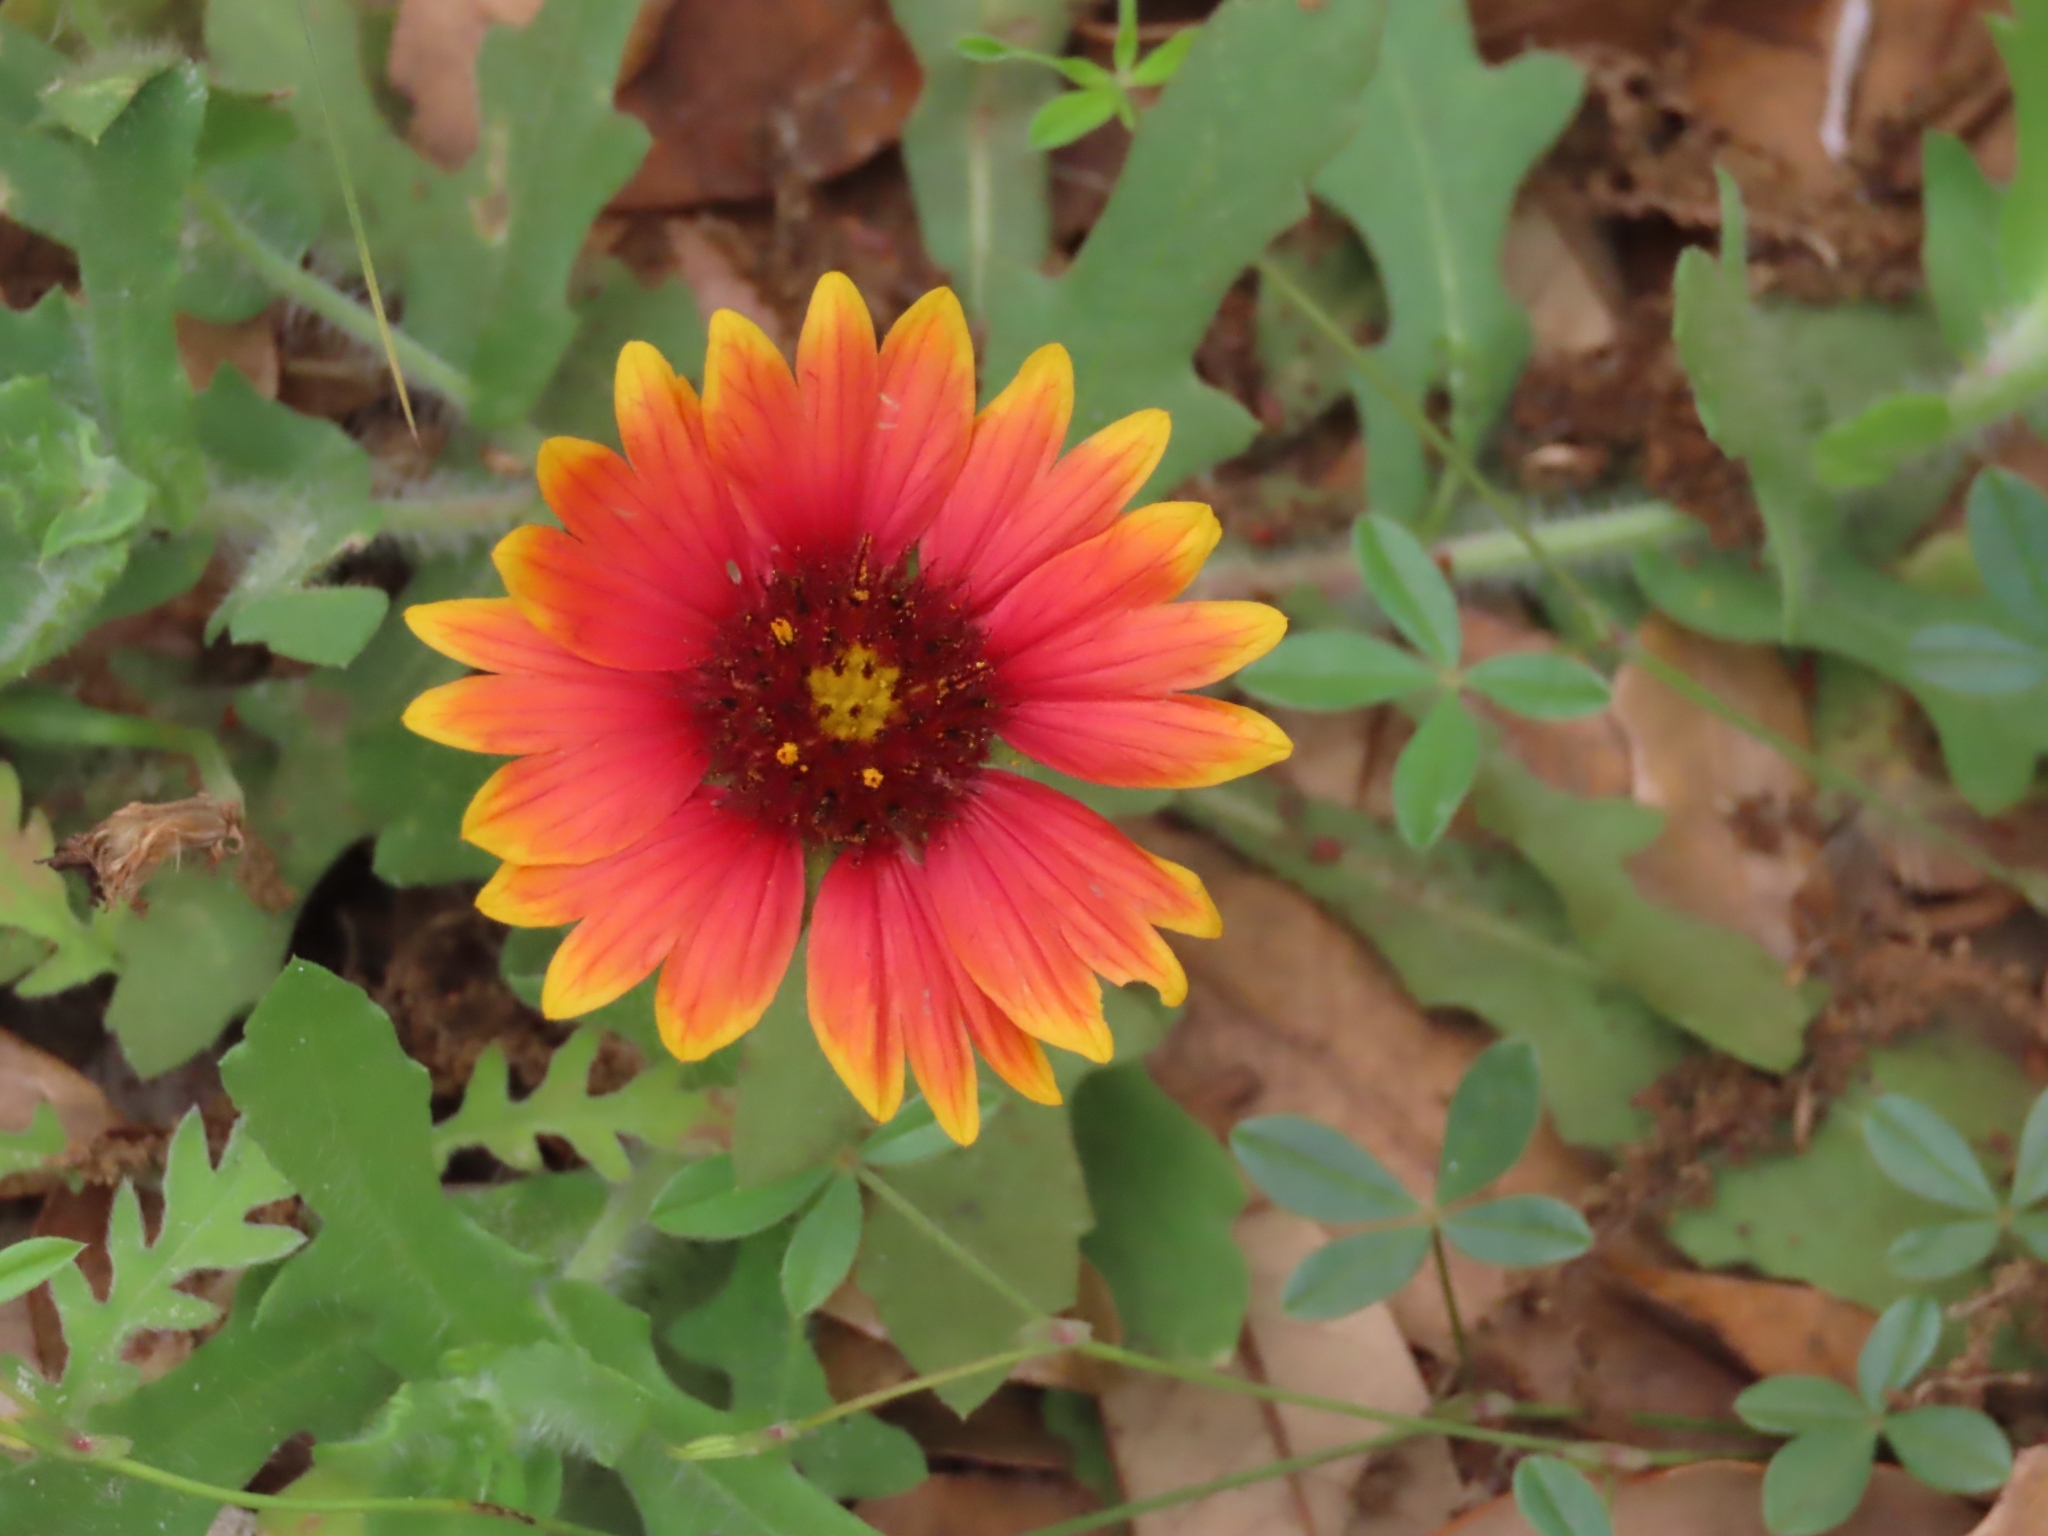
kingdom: Plantae
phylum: Tracheophyta
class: Magnoliopsida
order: Asterales
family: Asteraceae
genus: Gaillardia
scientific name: Gaillardia pulchella
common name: Firewheel
